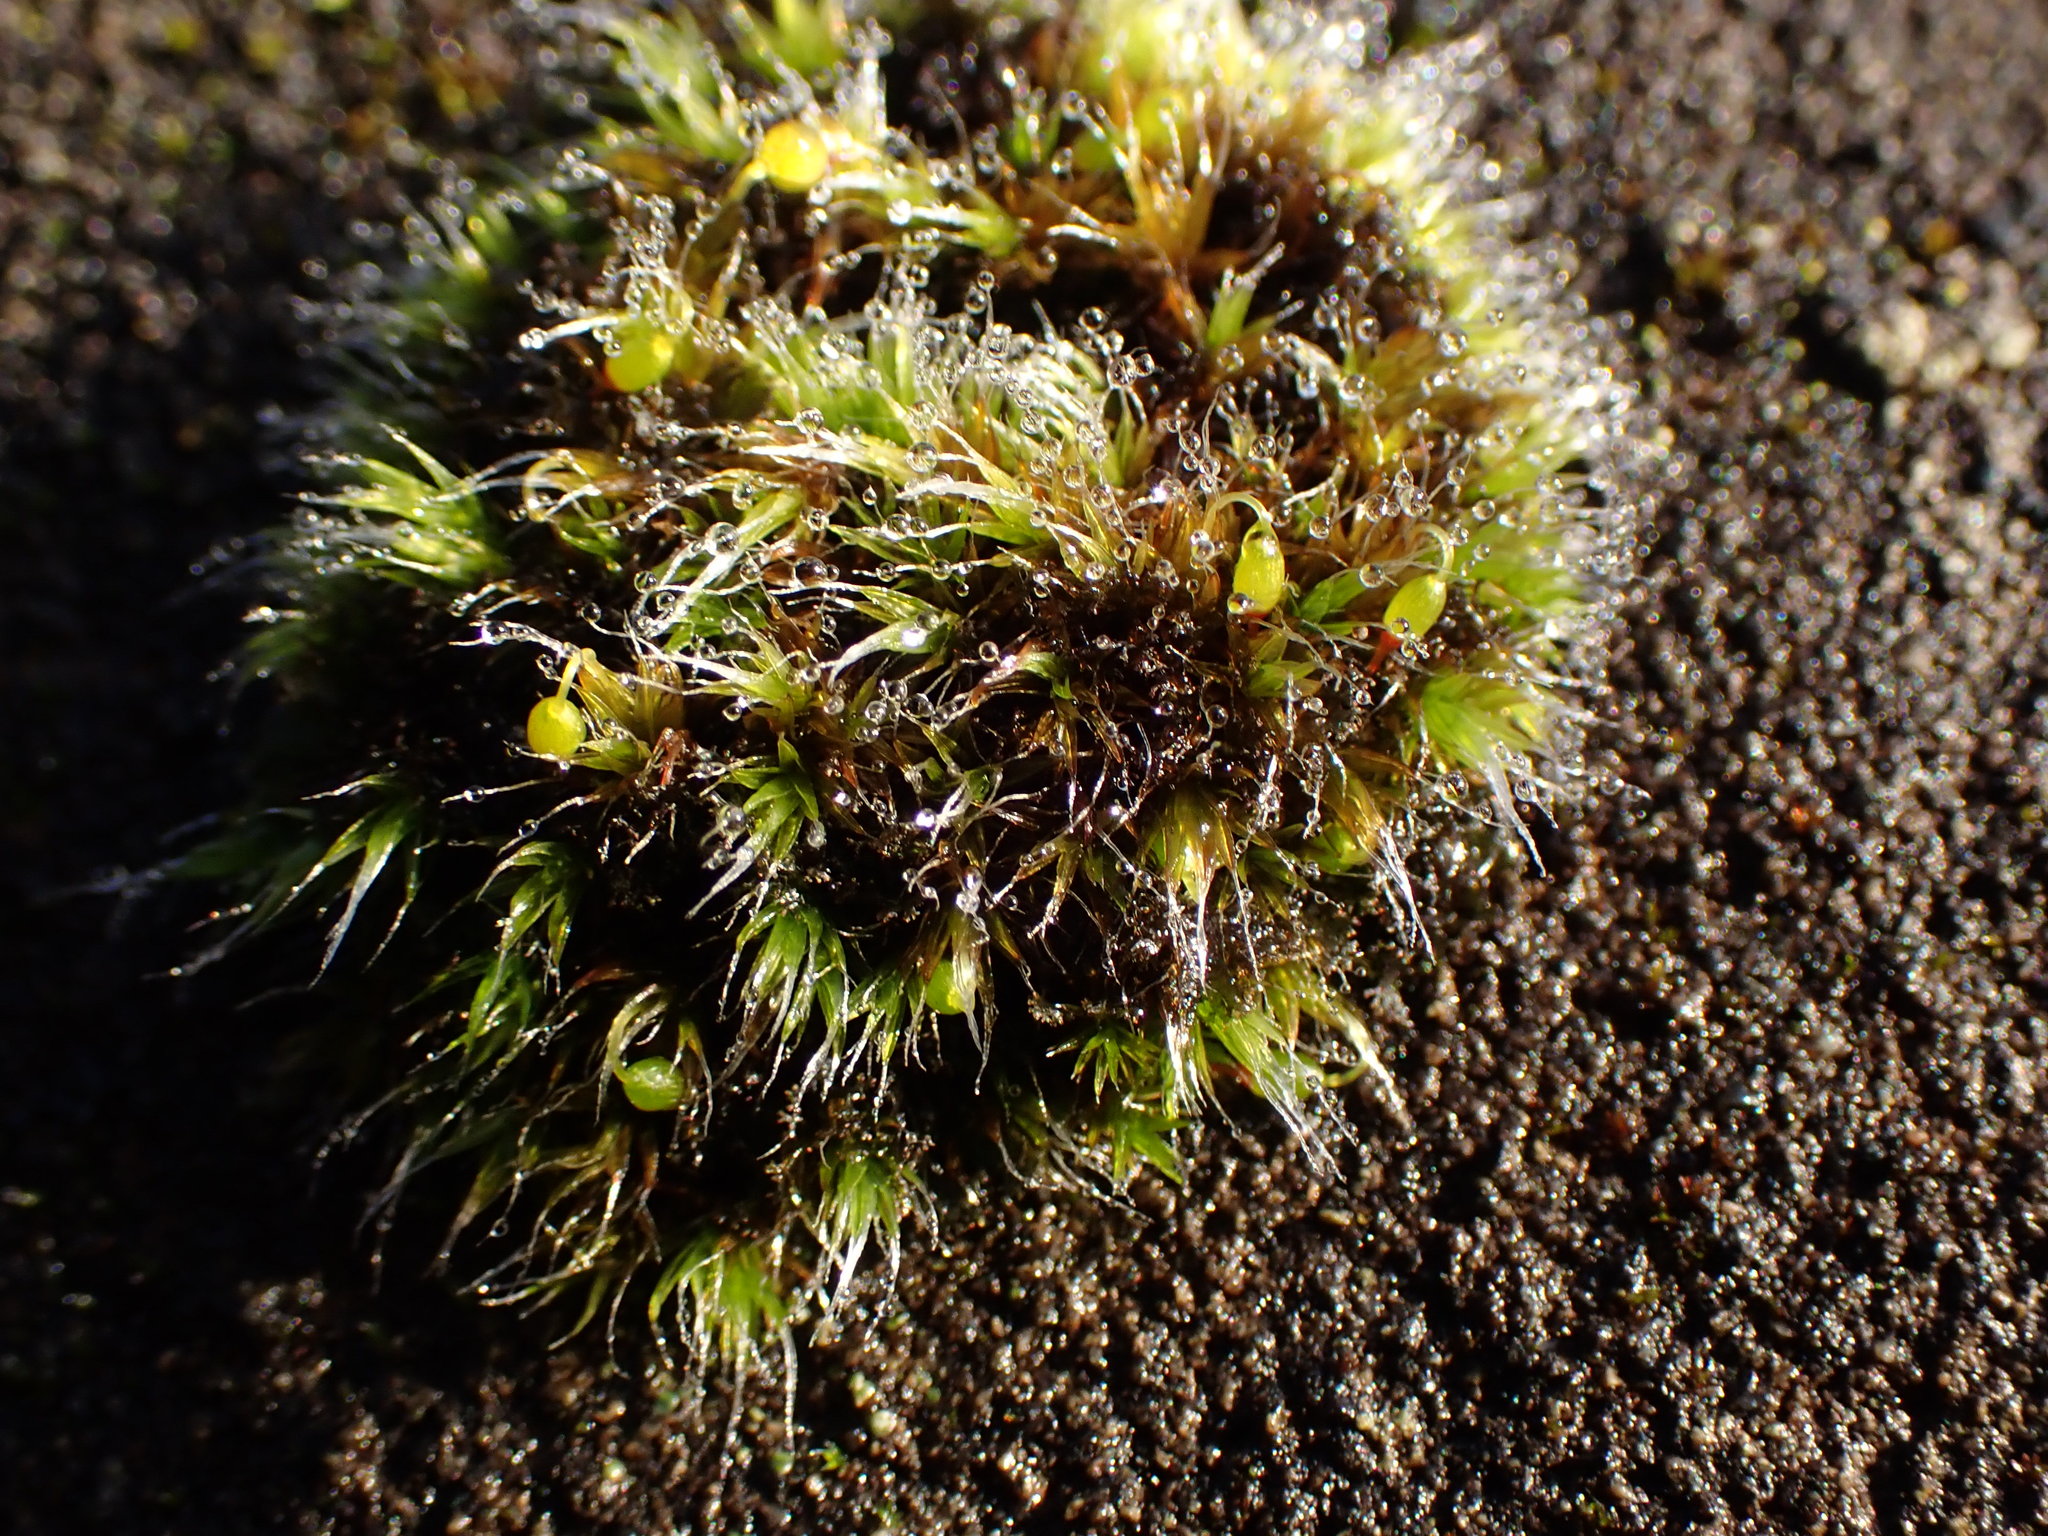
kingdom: Plantae
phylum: Bryophyta
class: Bryopsida
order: Grimmiales
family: Grimmiaceae
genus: Grimmia
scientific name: Grimmia pulvinata
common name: Grey-cushioned grimmia
